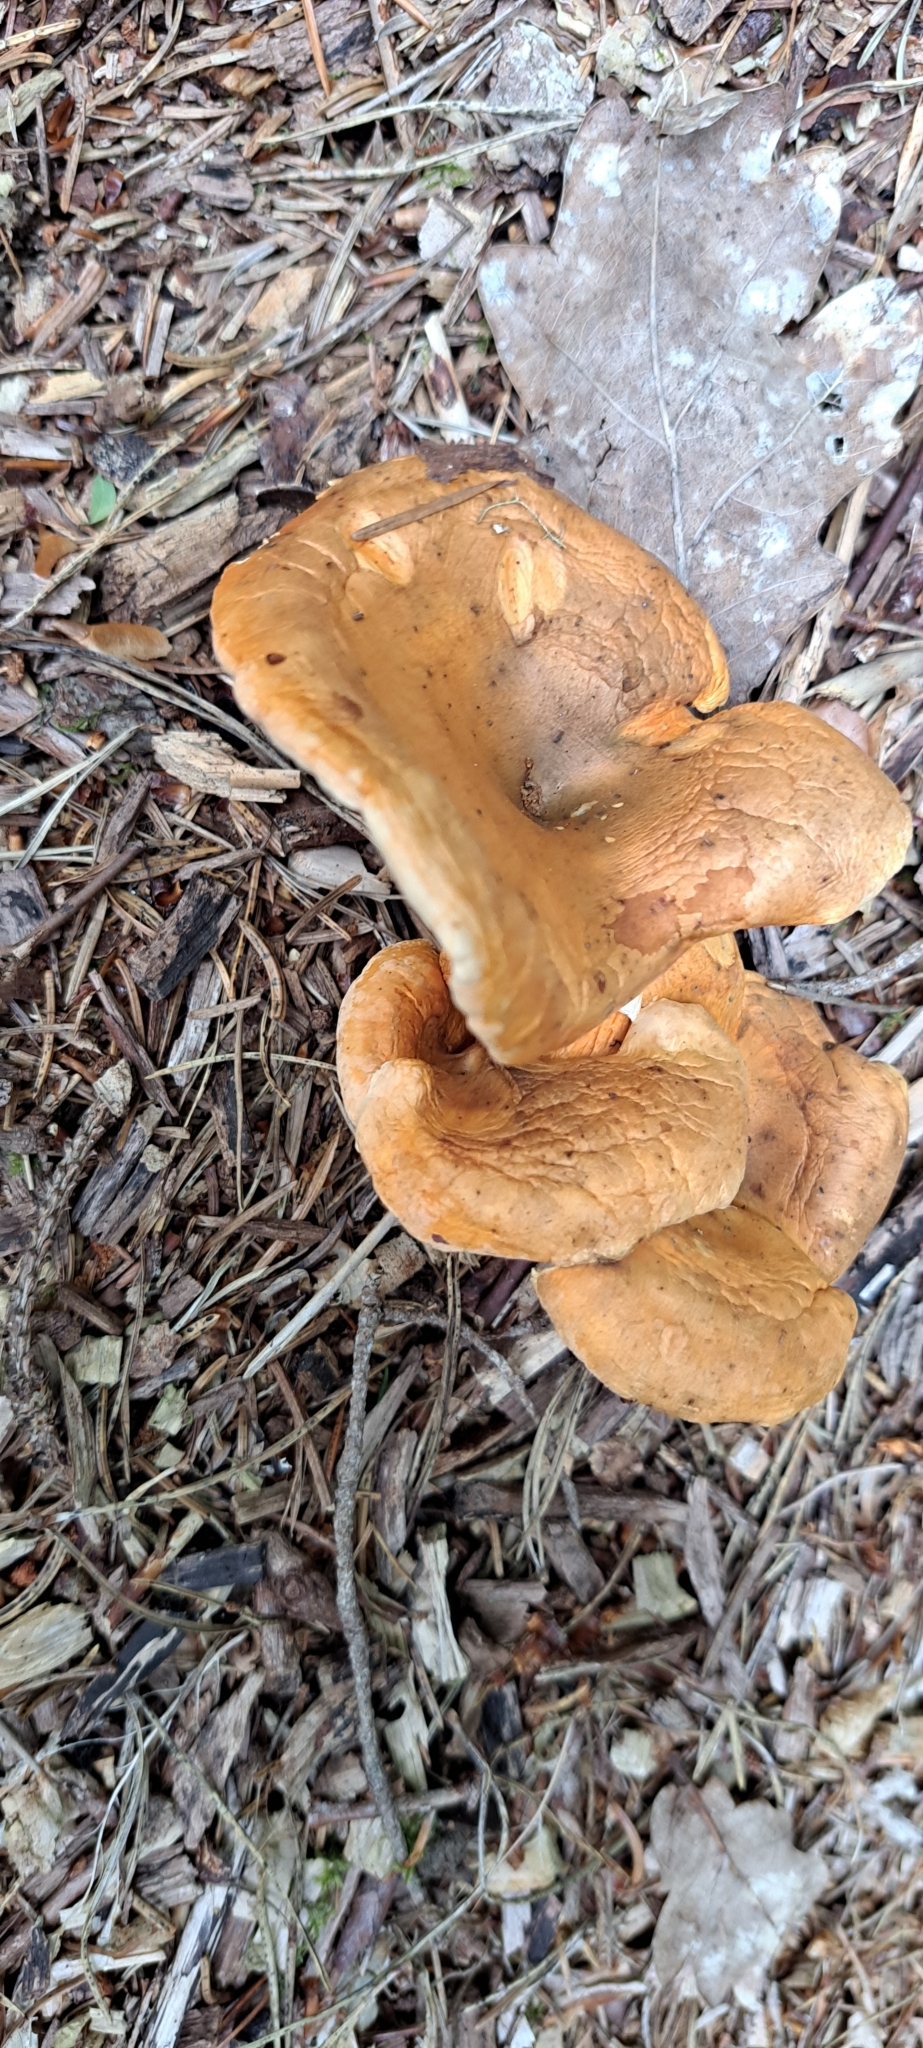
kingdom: Fungi
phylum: Basidiomycota
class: Agaricomycetes
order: Boletales
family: Hygrophoropsidaceae
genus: Hygrophoropsis
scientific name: Hygrophoropsis aurantiaca
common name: False chanterelle
